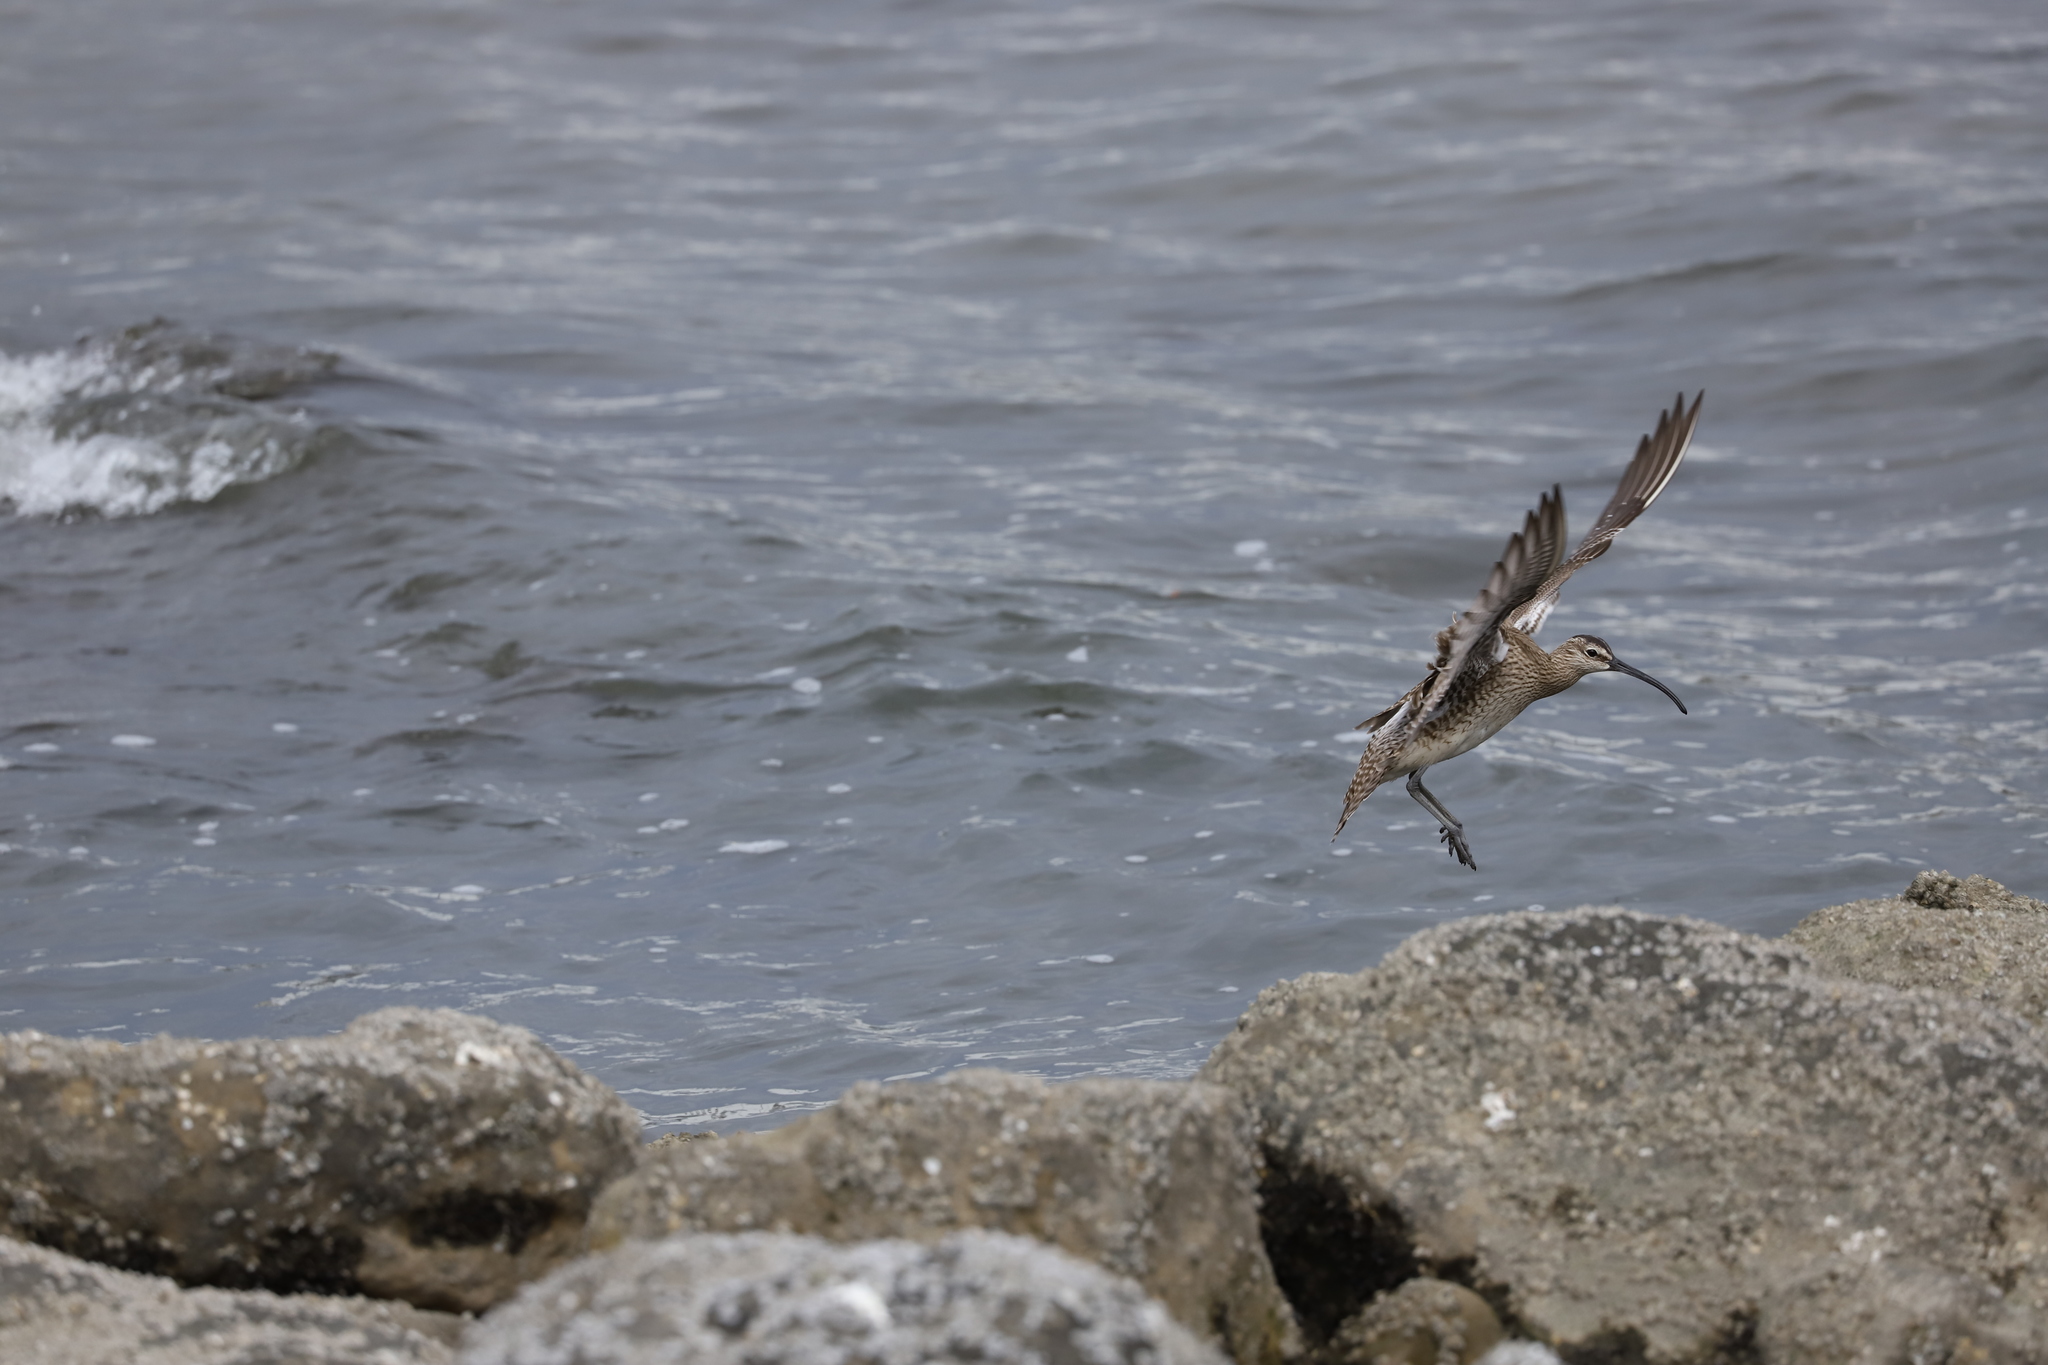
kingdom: Animalia
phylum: Chordata
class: Aves
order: Charadriiformes
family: Scolopacidae
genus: Numenius
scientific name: Numenius phaeopus
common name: Whimbrel
